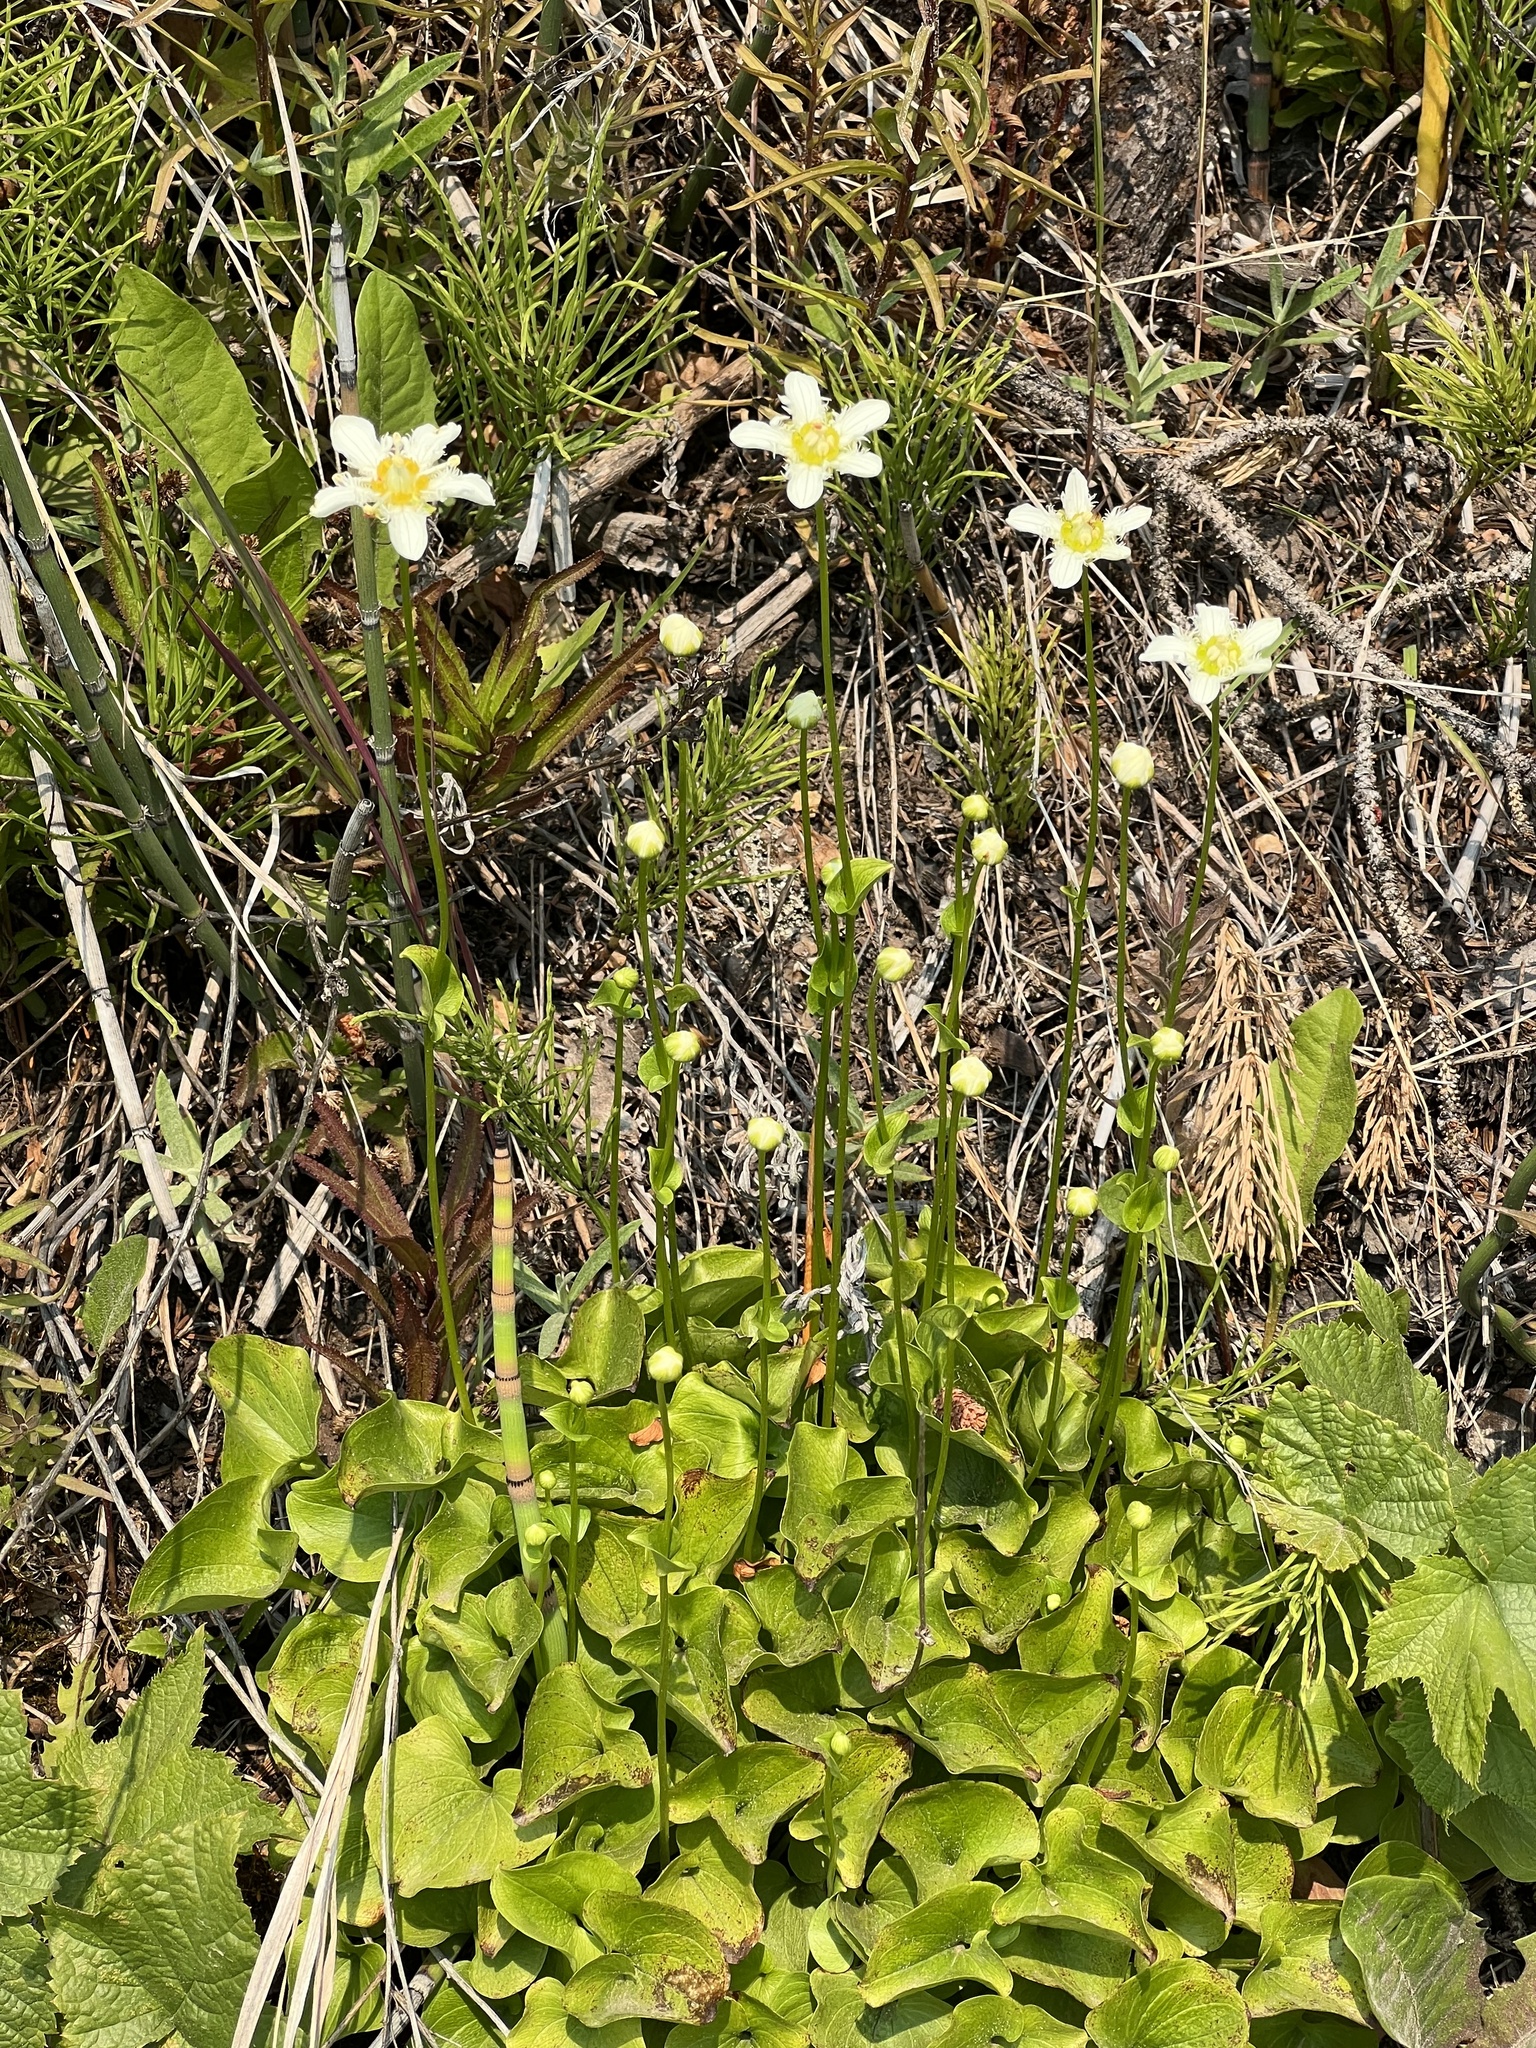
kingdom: Plantae
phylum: Tracheophyta
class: Magnoliopsida
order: Celastrales
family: Parnassiaceae
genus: Parnassia
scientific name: Parnassia fimbriata
